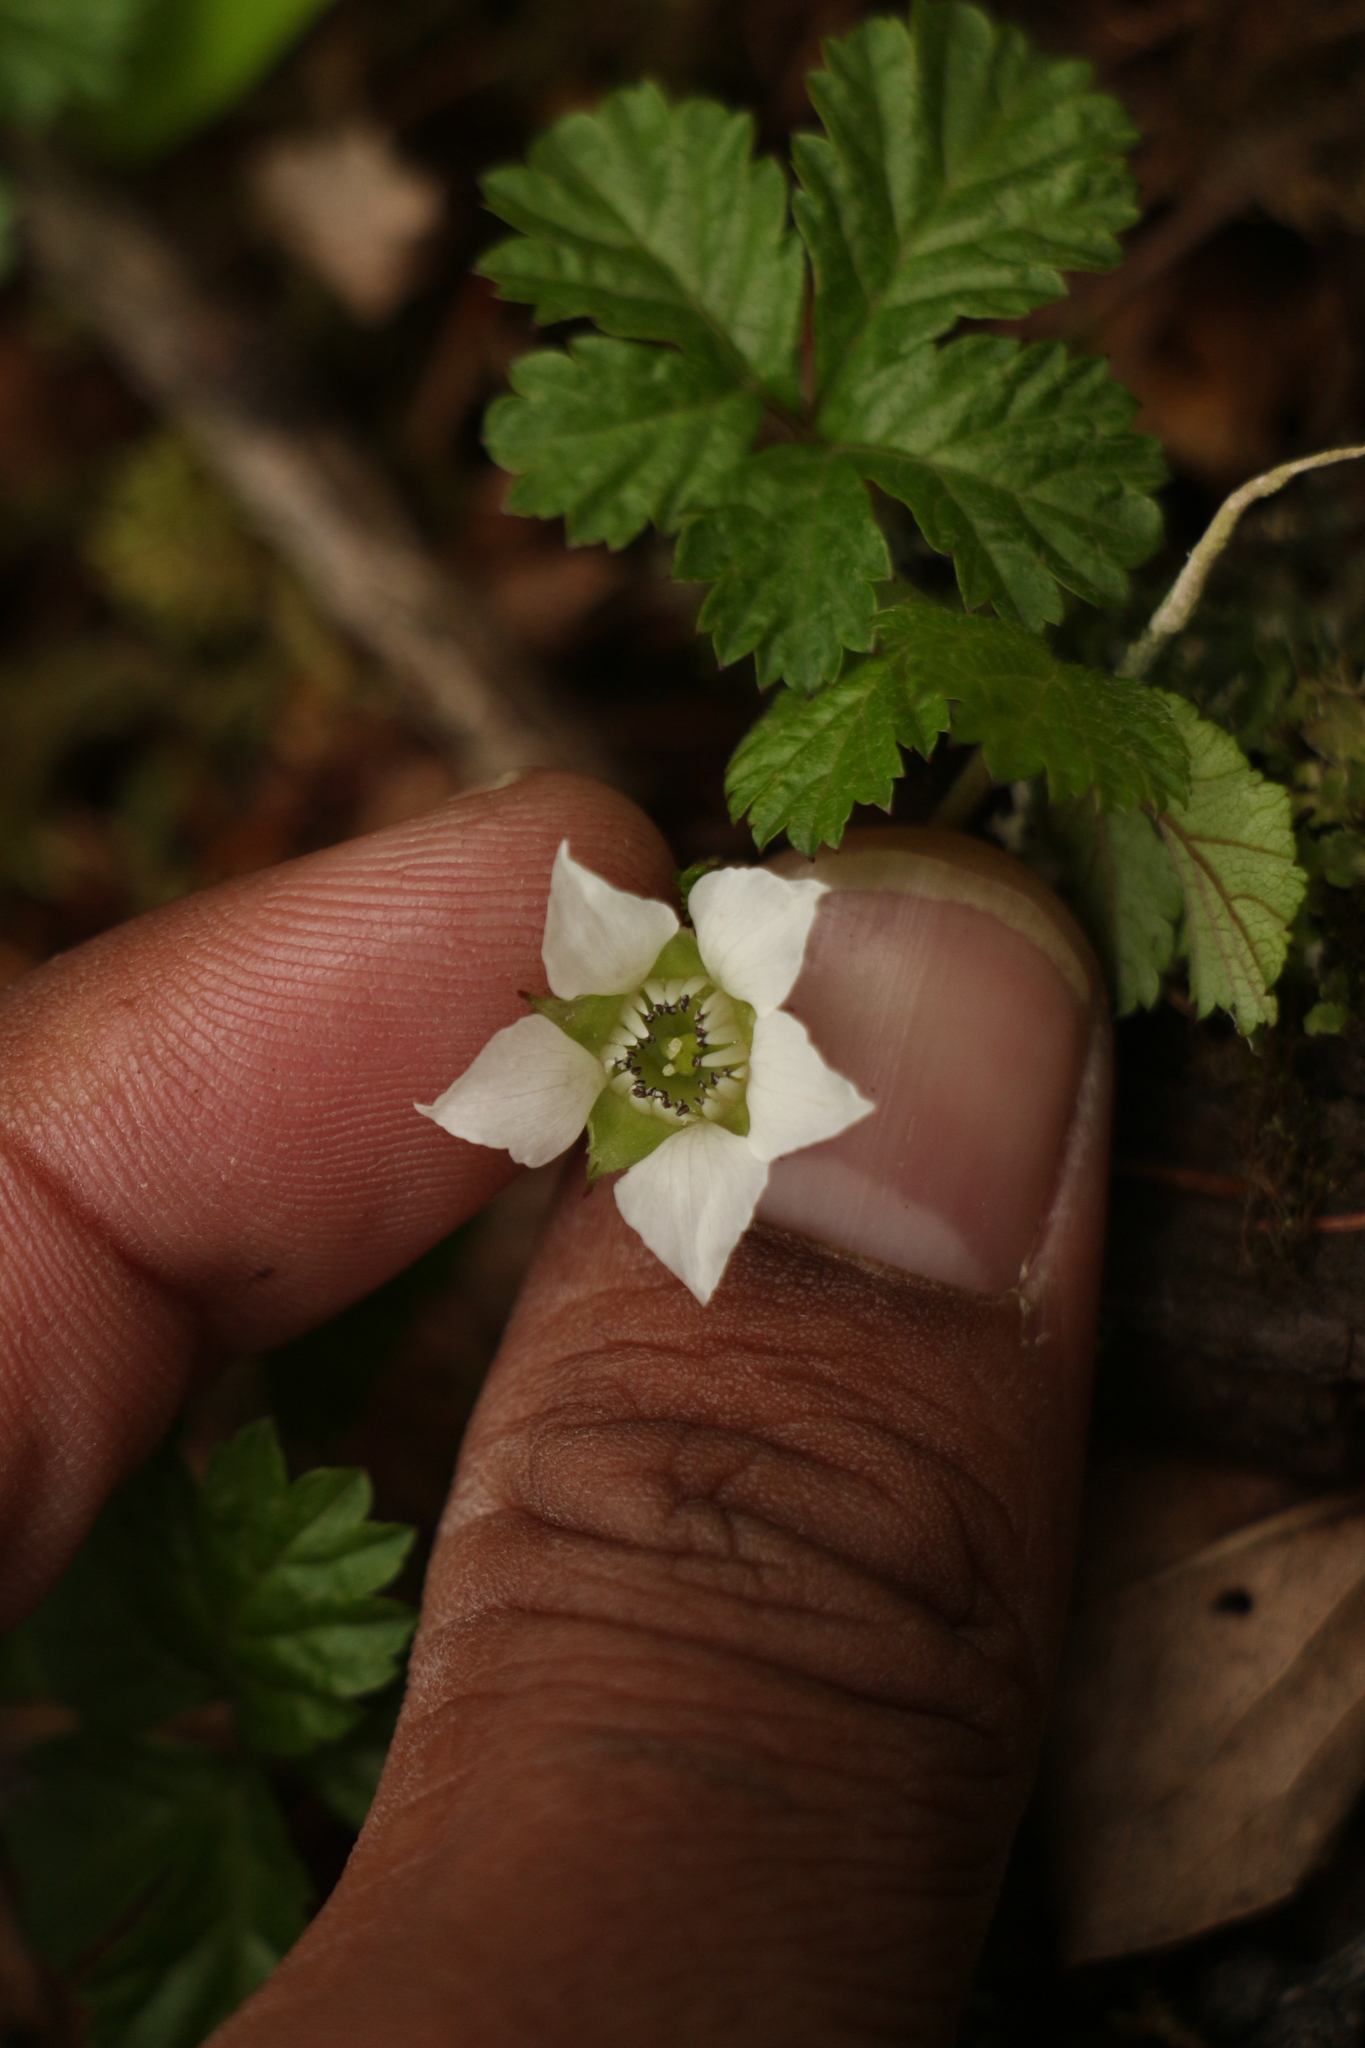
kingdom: Plantae
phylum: Tracheophyta
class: Magnoliopsida
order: Rosales
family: Rosaceae
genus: Rubus
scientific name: Rubus nepalensis
